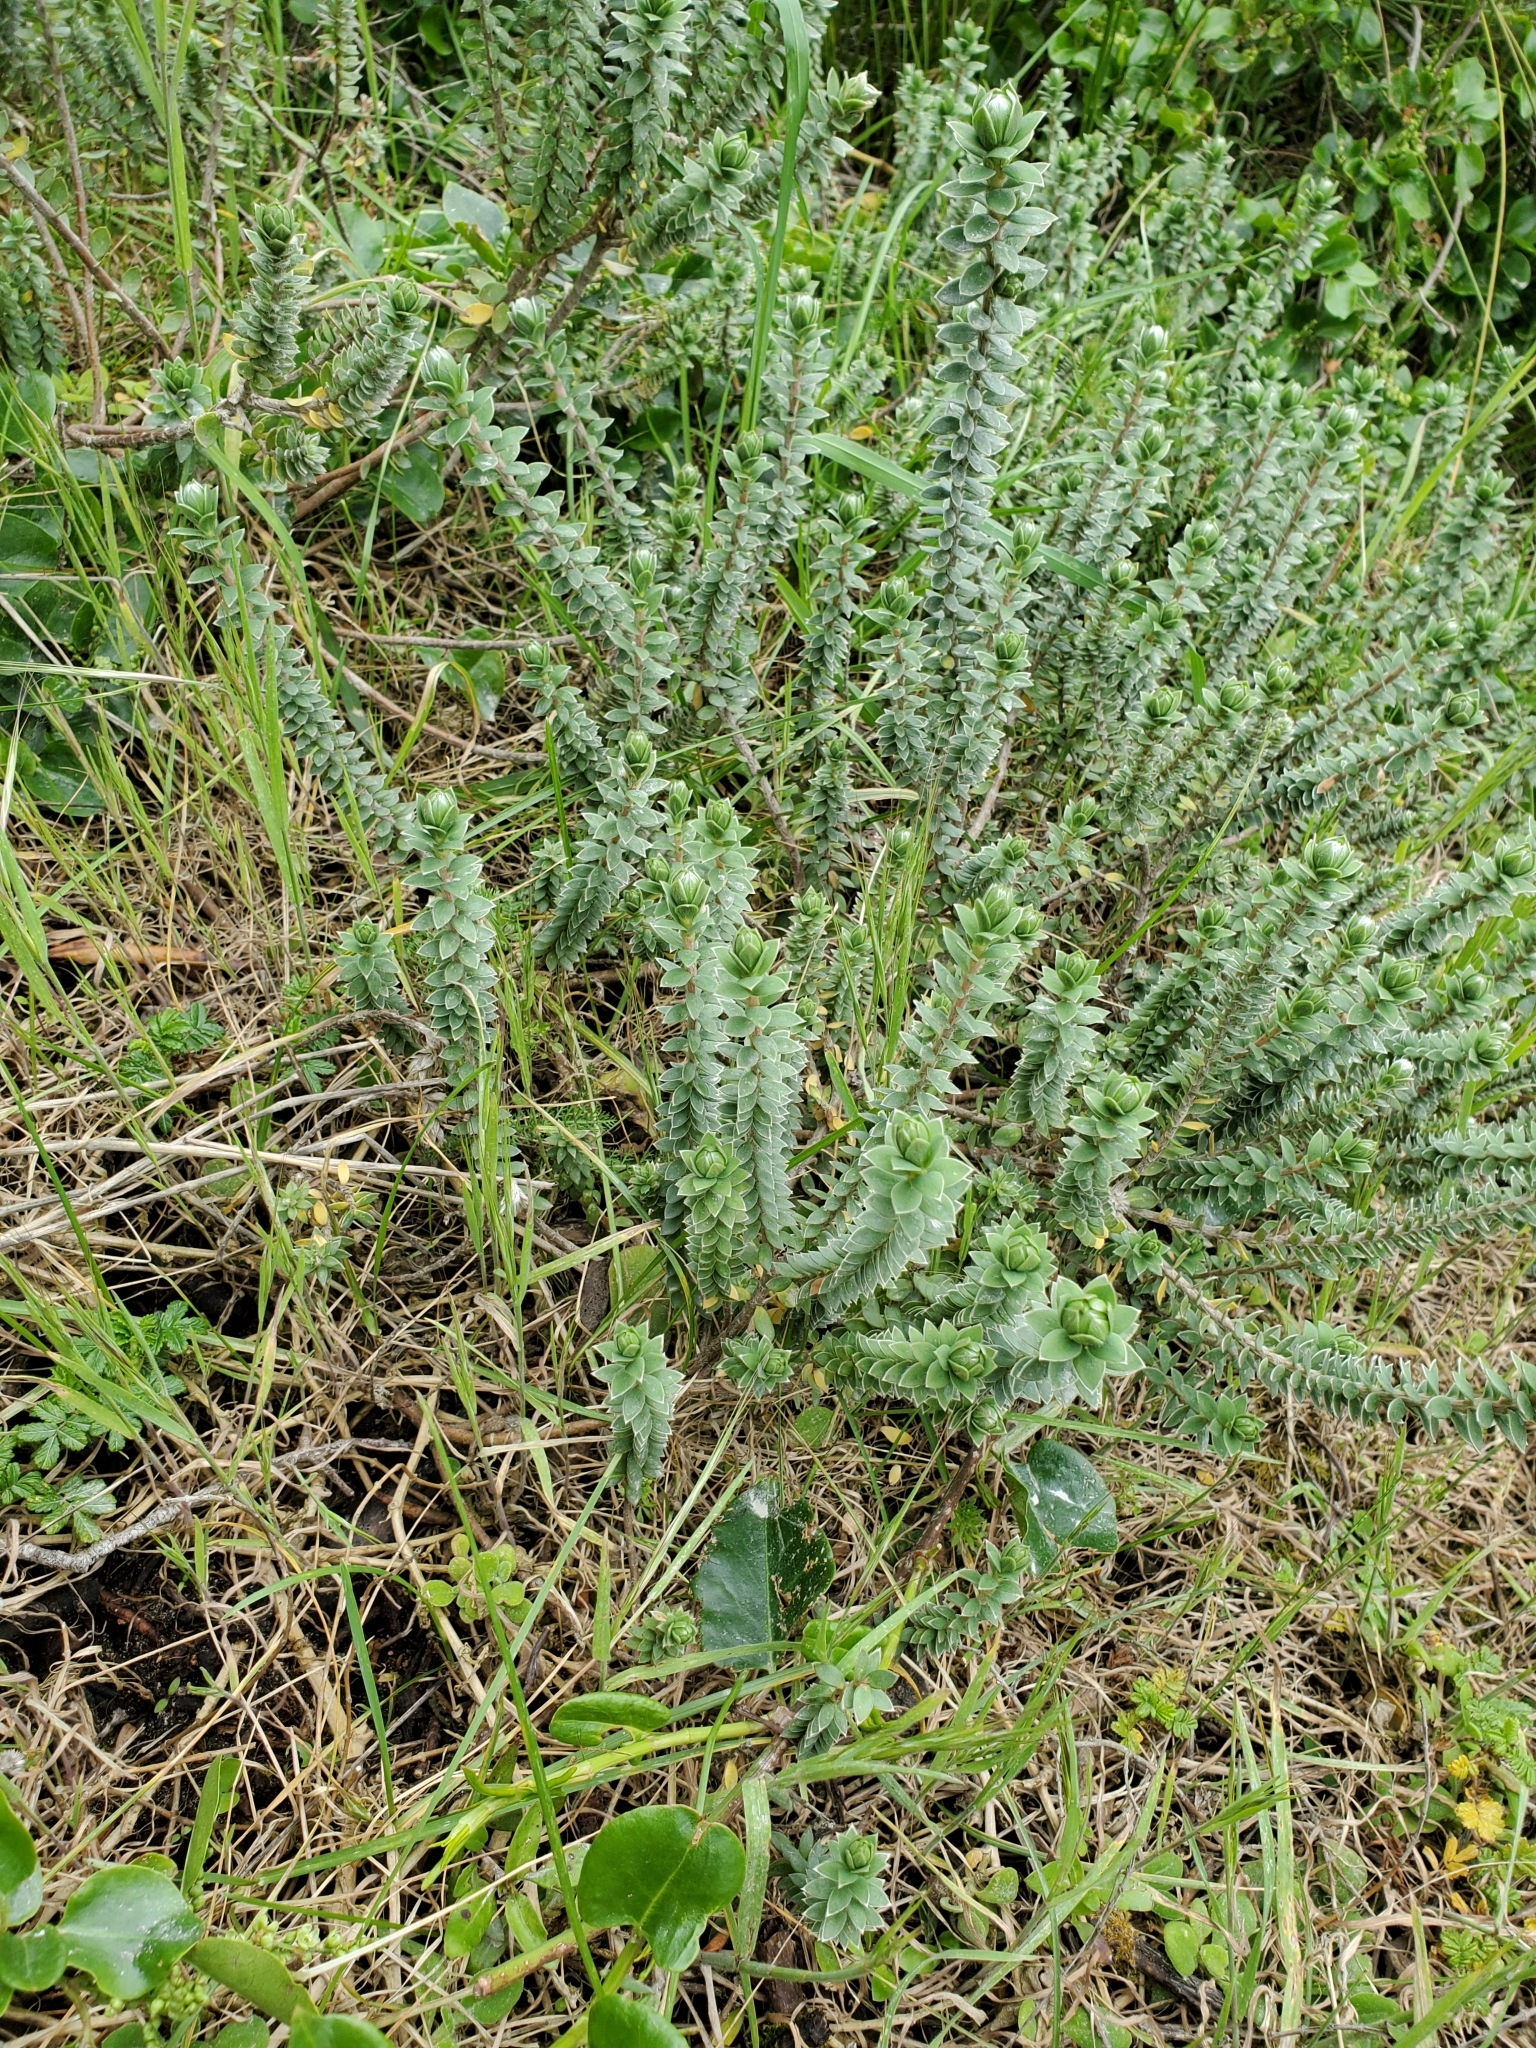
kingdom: Plantae
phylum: Tracheophyta
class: Magnoliopsida
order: Malvales
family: Thymelaeaceae
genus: Pimelea
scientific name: Pimelea villosa
